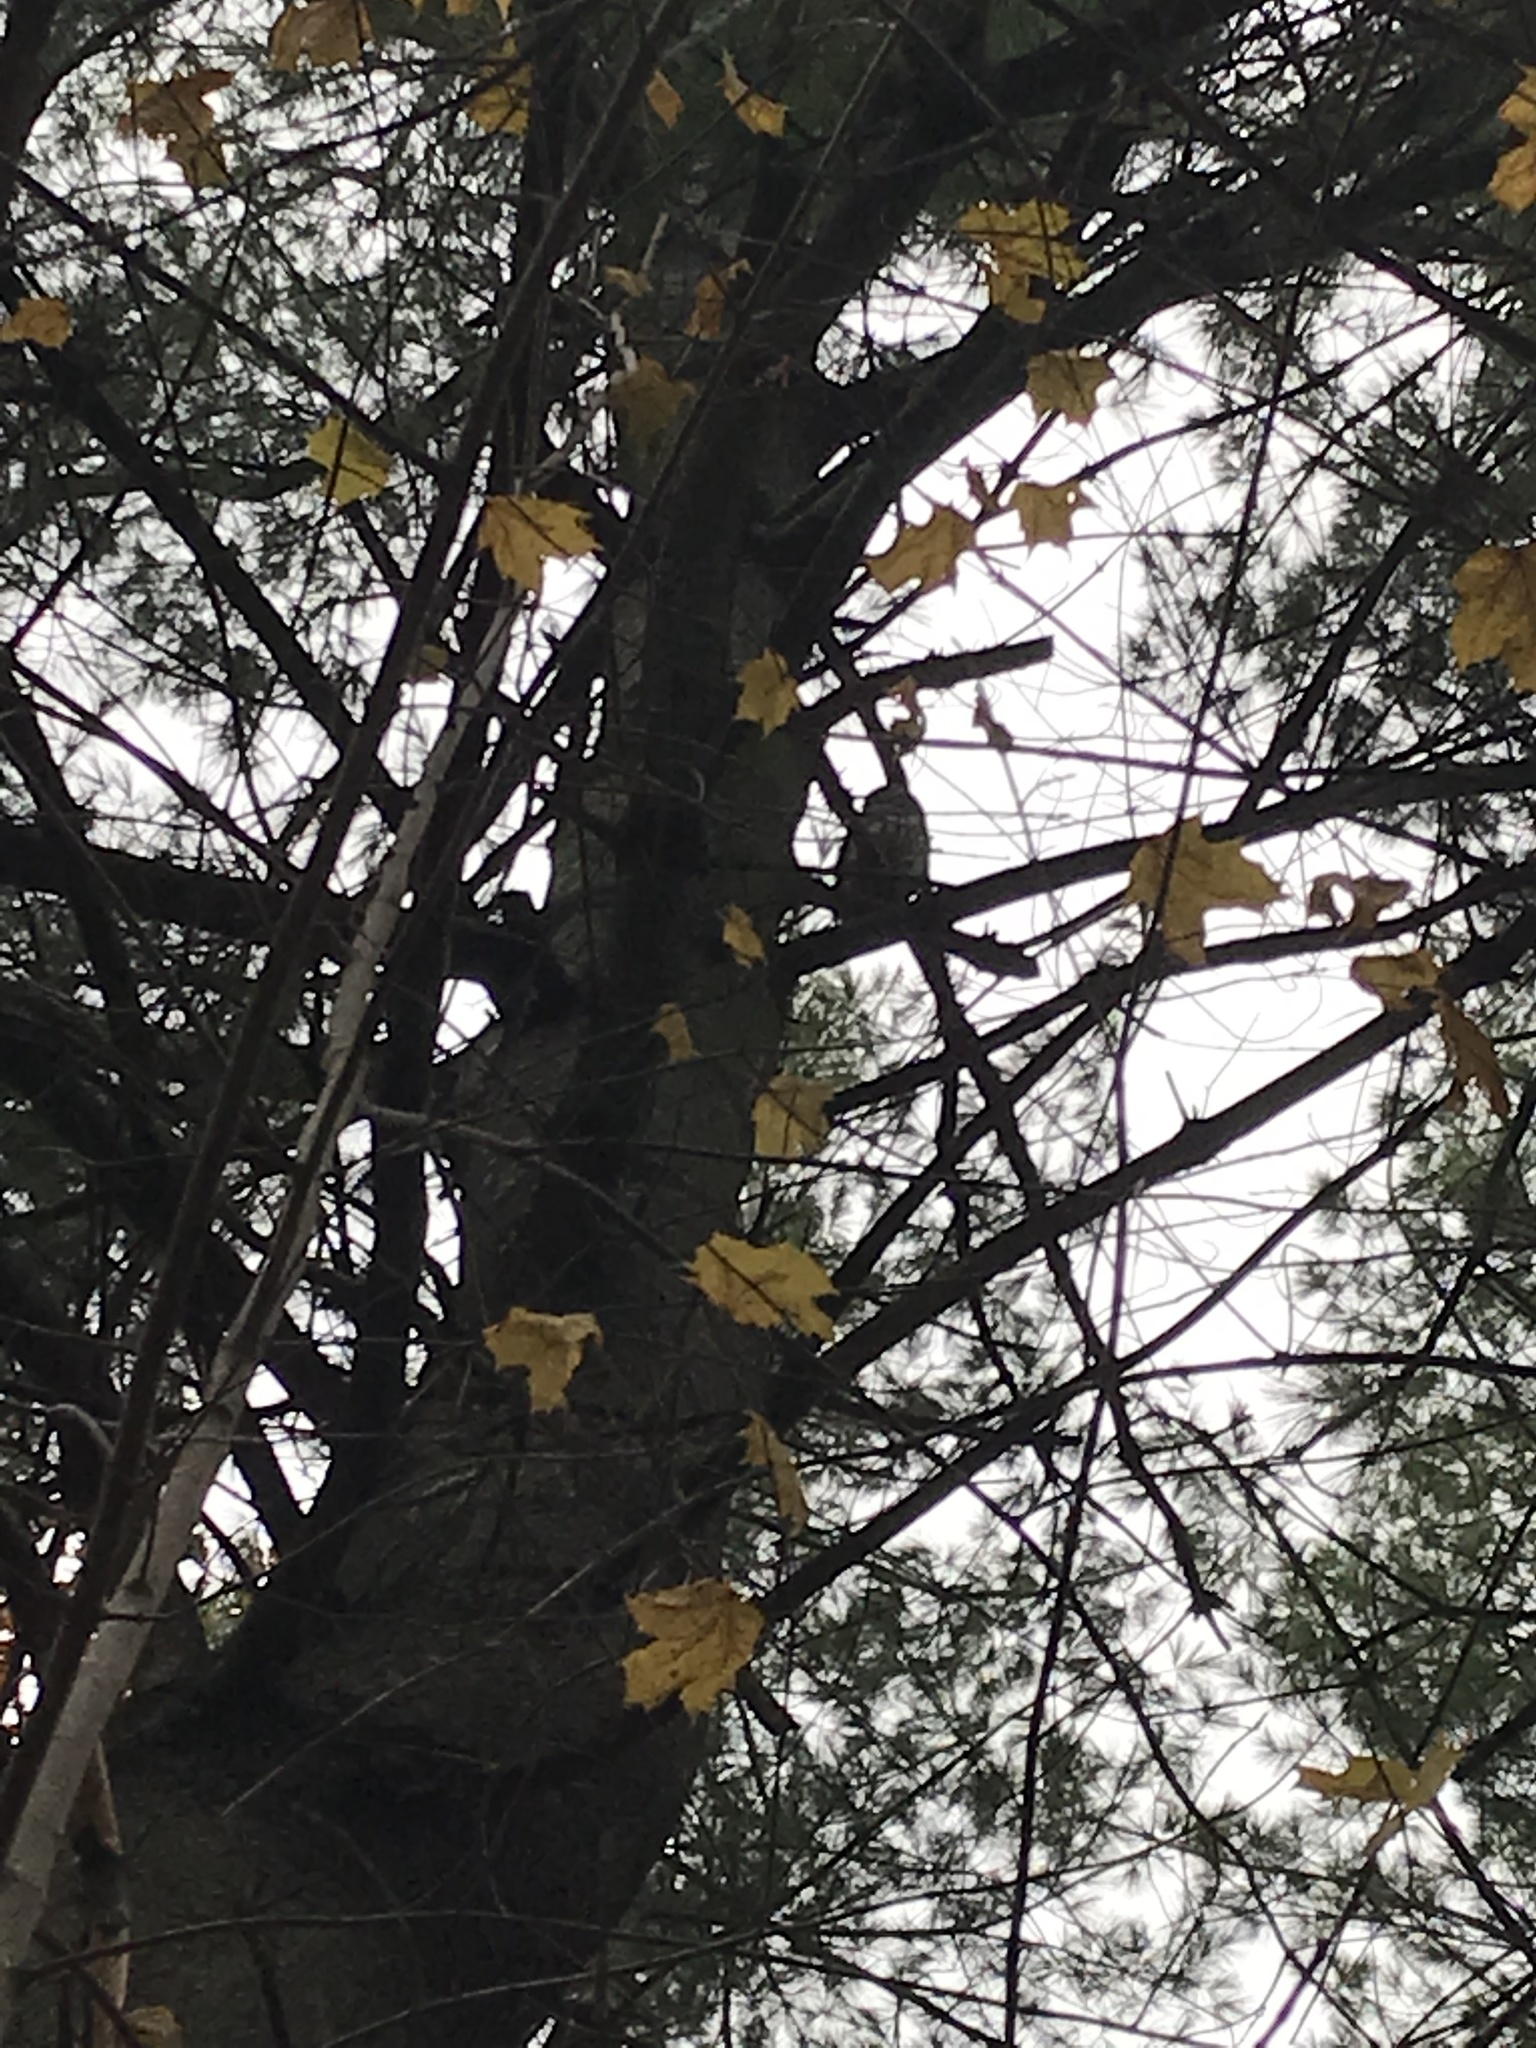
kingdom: Animalia
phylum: Chordata
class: Aves
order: Strigiformes
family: Strigidae
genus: Strix
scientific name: Strix varia
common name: Barred owl
